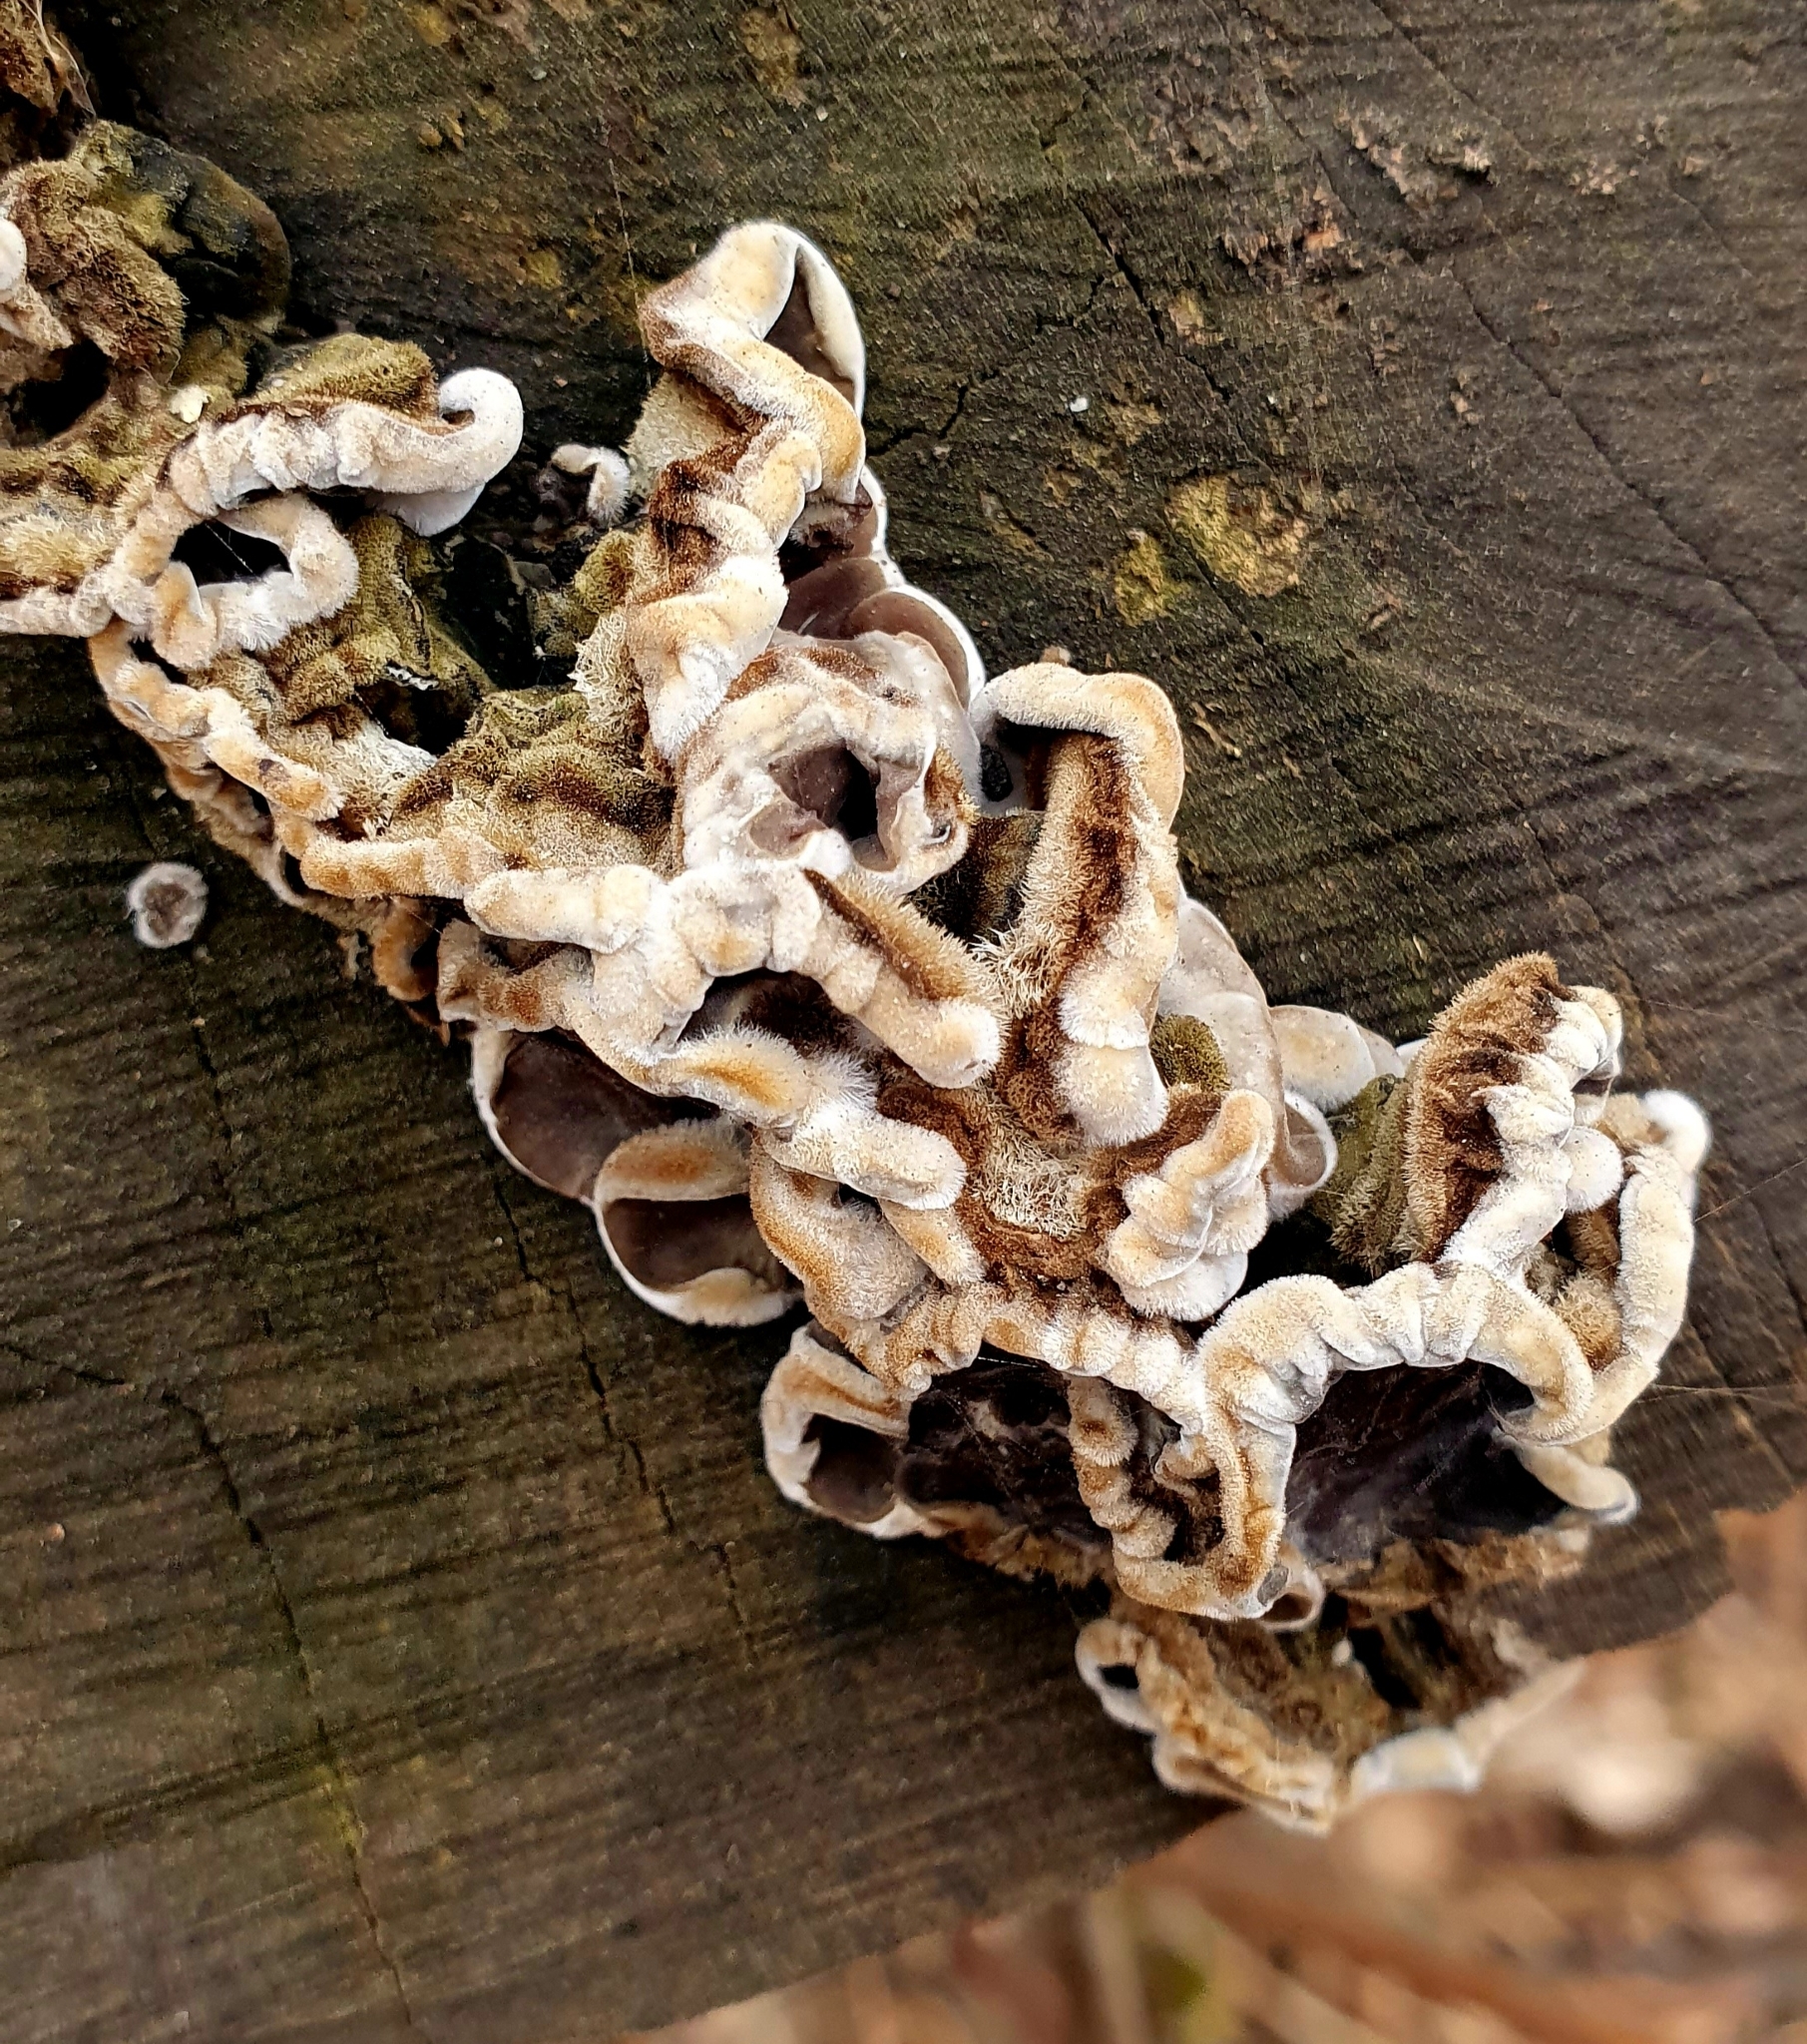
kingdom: Fungi
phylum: Basidiomycota
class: Agaricomycetes
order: Auriculariales
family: Auriculariaceae
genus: Auricularia
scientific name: Auricularia mesenterica
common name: Tripe fungus
